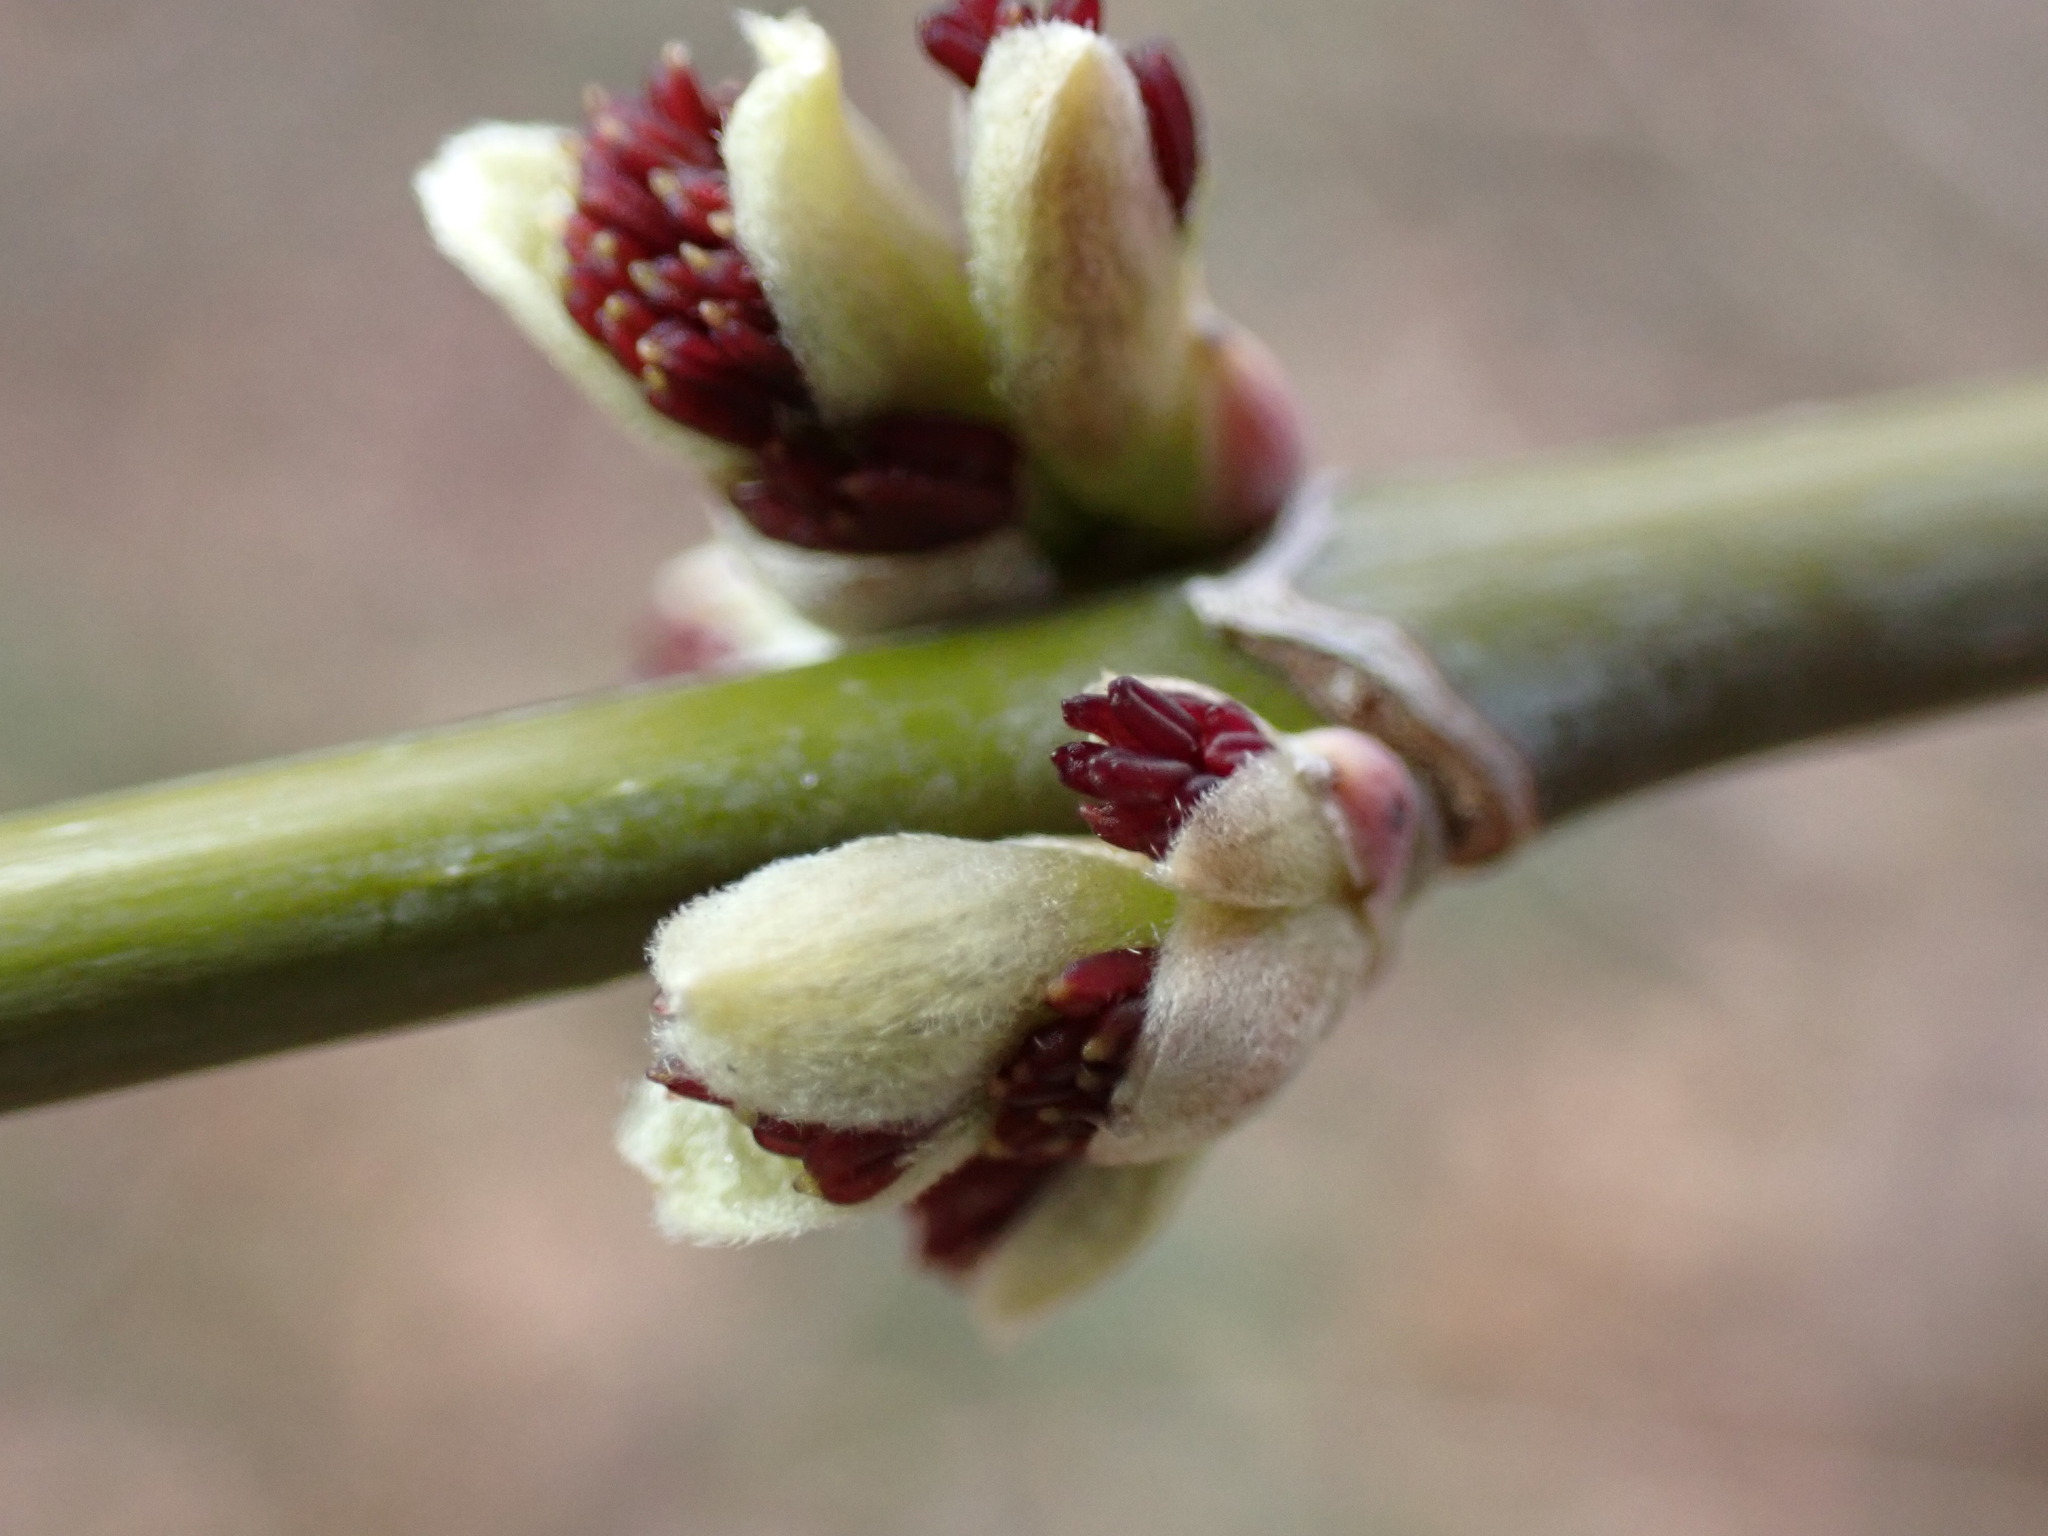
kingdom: Plantae
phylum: Tracheophyta
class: Magnoliopsida
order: Sapindales
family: Sapindaceae
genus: Acer
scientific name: Acer negundo
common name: Ashleaf maple
